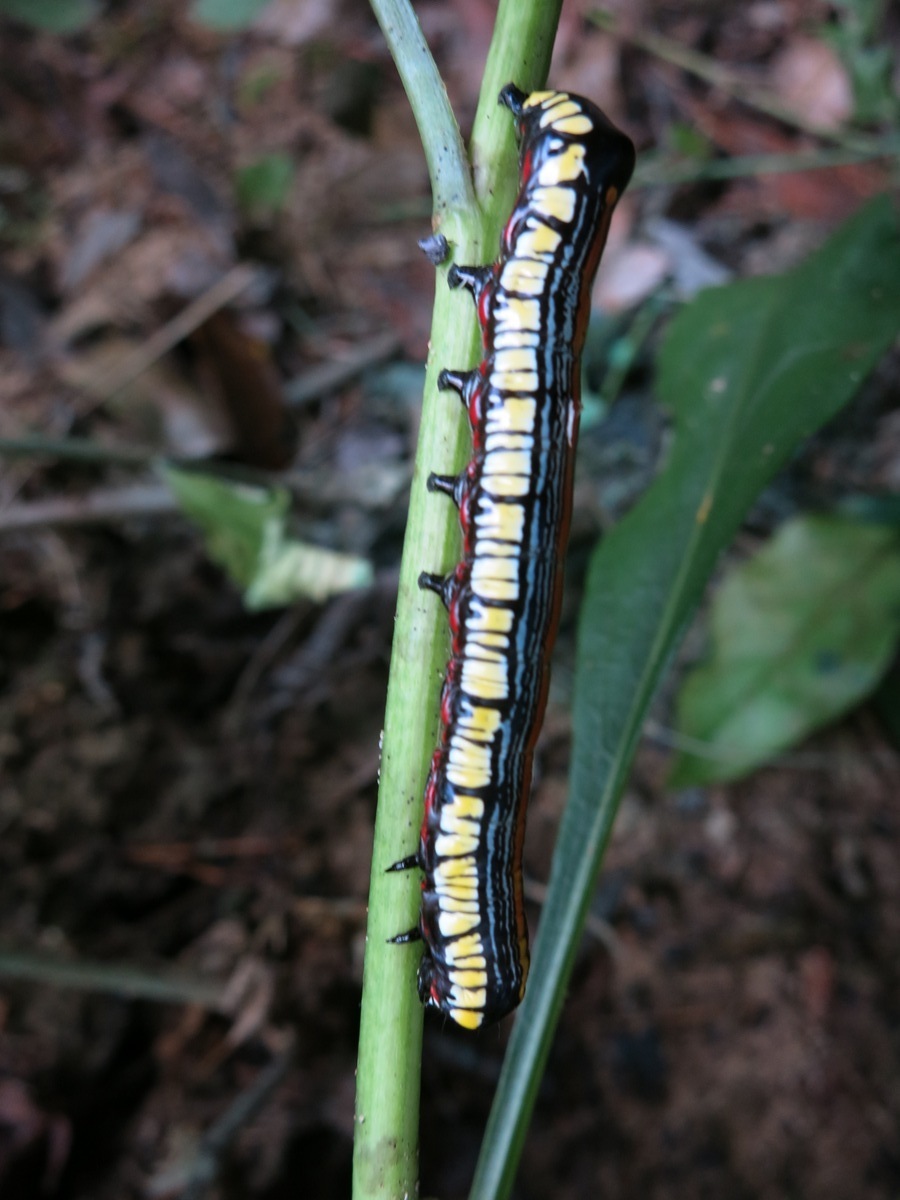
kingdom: Animalia
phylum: Arthropoda
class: Insecta
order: Lepidoptera
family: Noctuidae
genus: Cucullia
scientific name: Cucullia convexipennis
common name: Brown-hooded owlet
